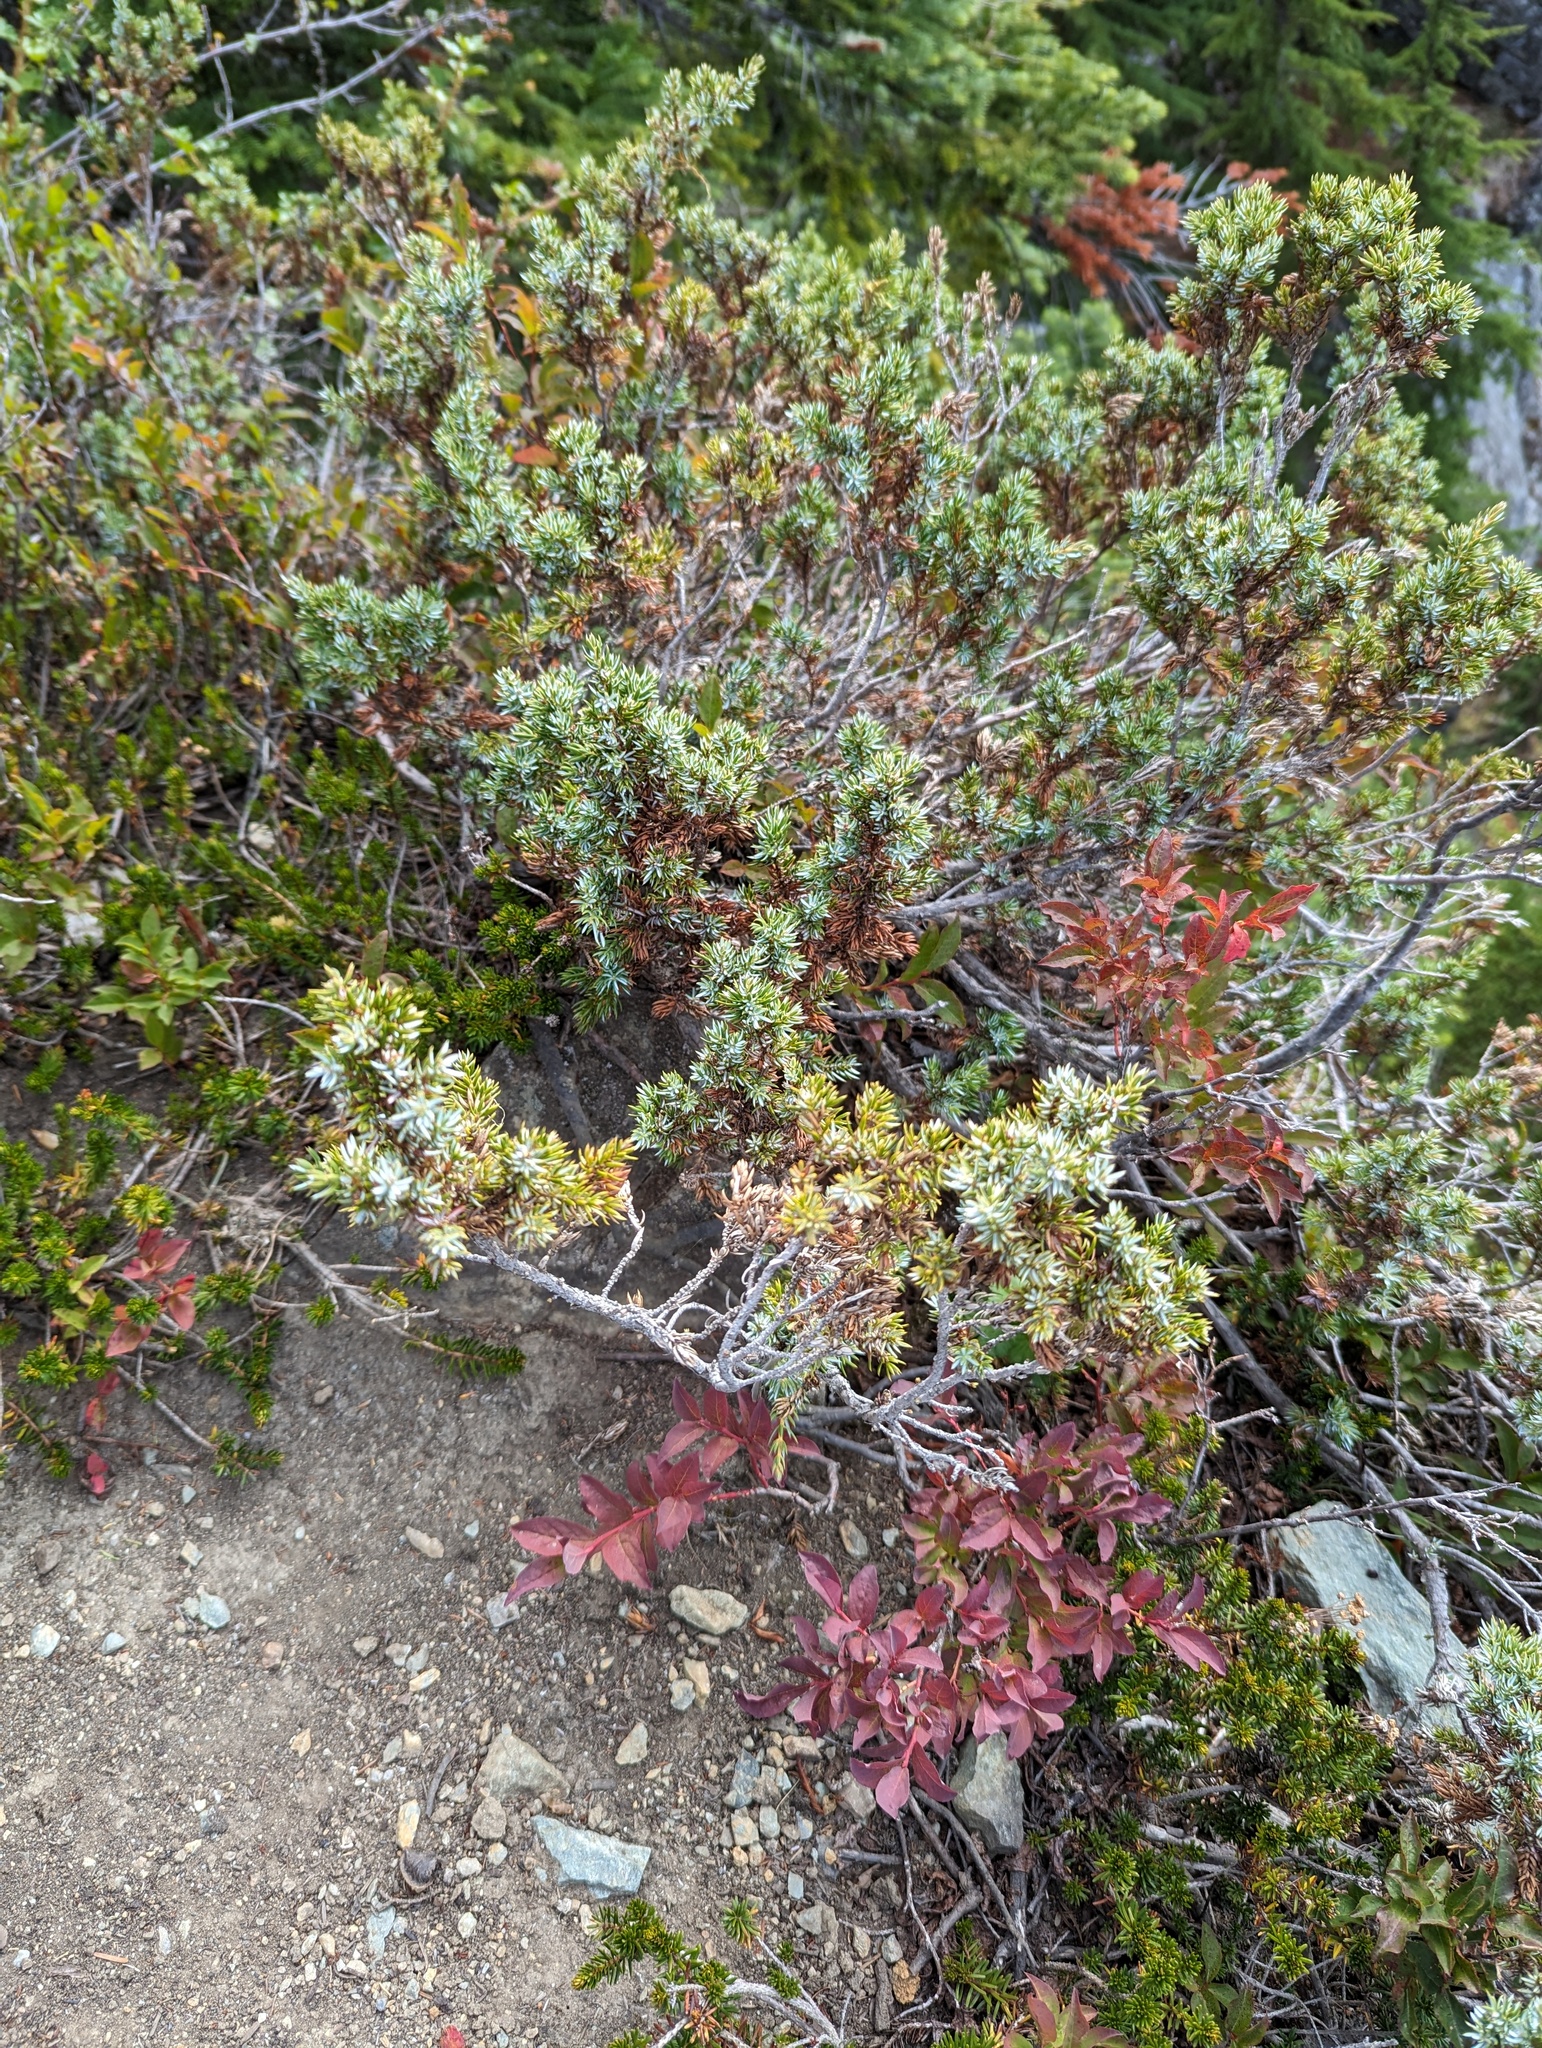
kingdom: Plantae
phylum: Tracheophyta
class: Pinopsida
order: Pinales
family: Cupressaceae
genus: Juniperus
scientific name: Juniperus communis
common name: Common juniper
